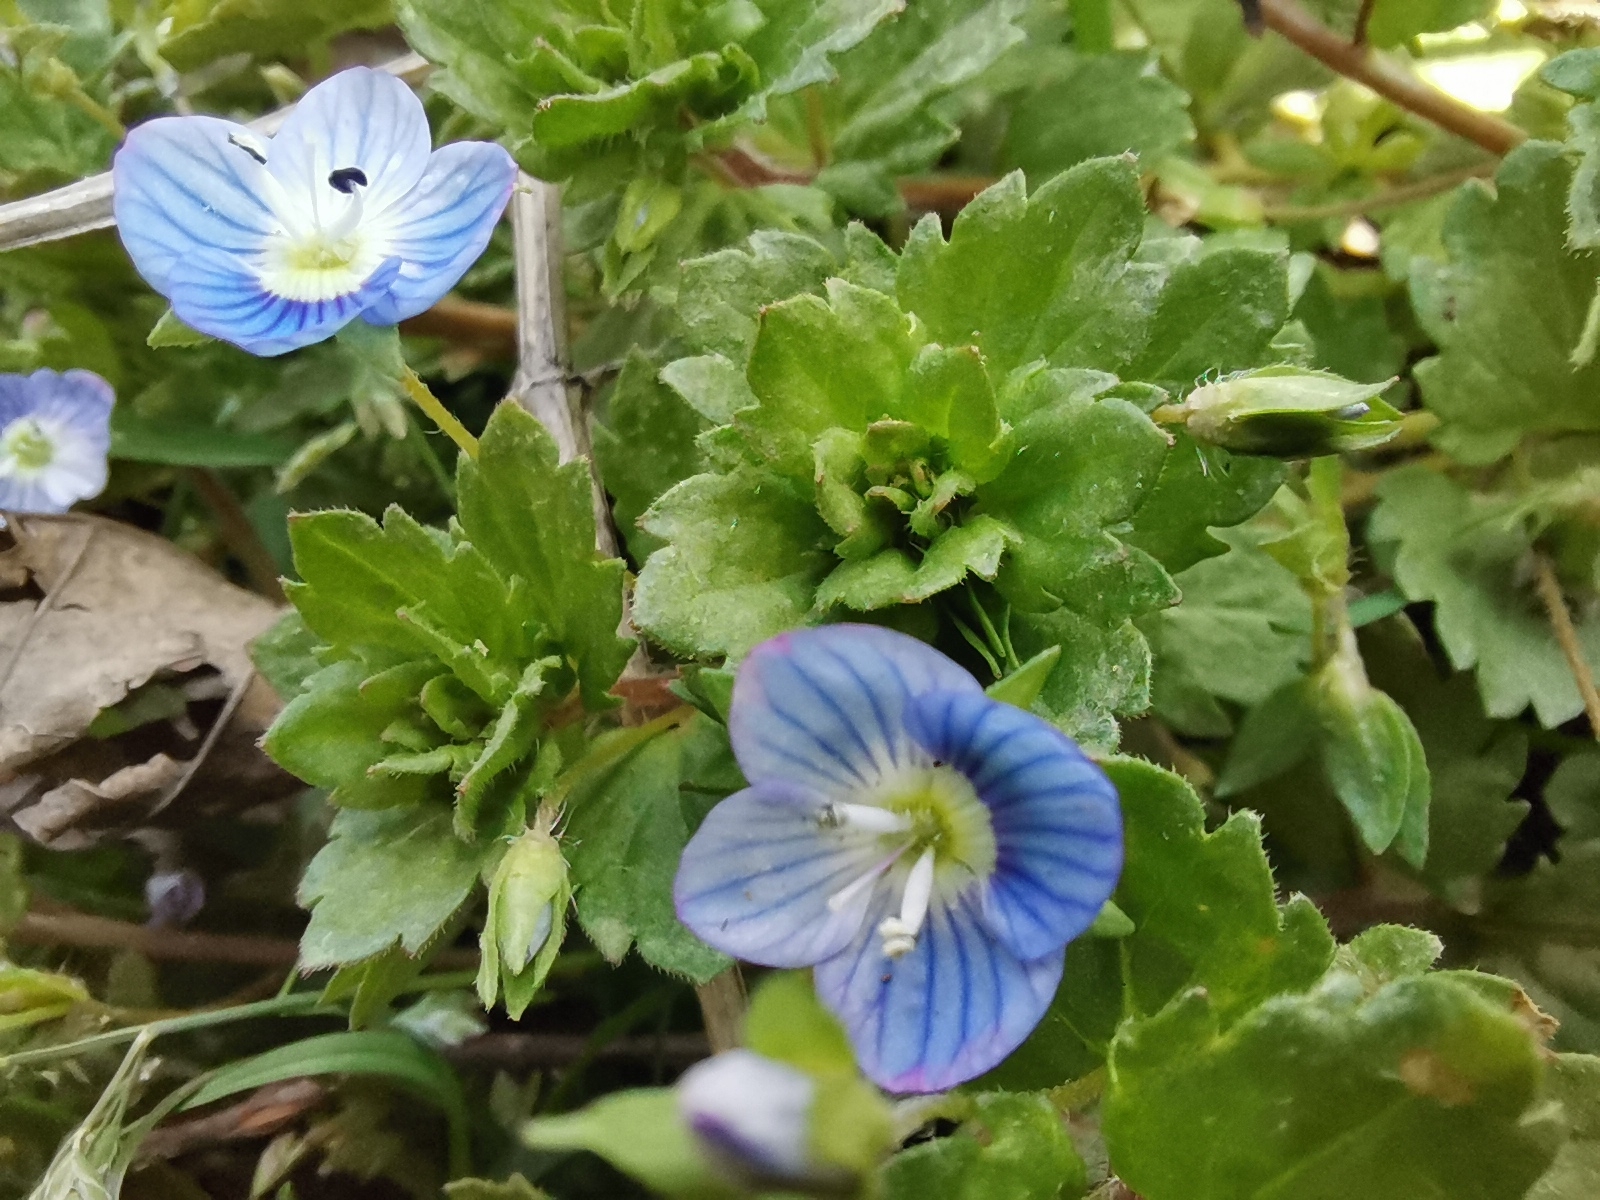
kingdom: Plantae
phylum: Tracheophyta
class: Magnoliopsida
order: Lamiales
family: Plantaginaceae
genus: Veronica
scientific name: Veronica persica
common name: Common field-speedwell
